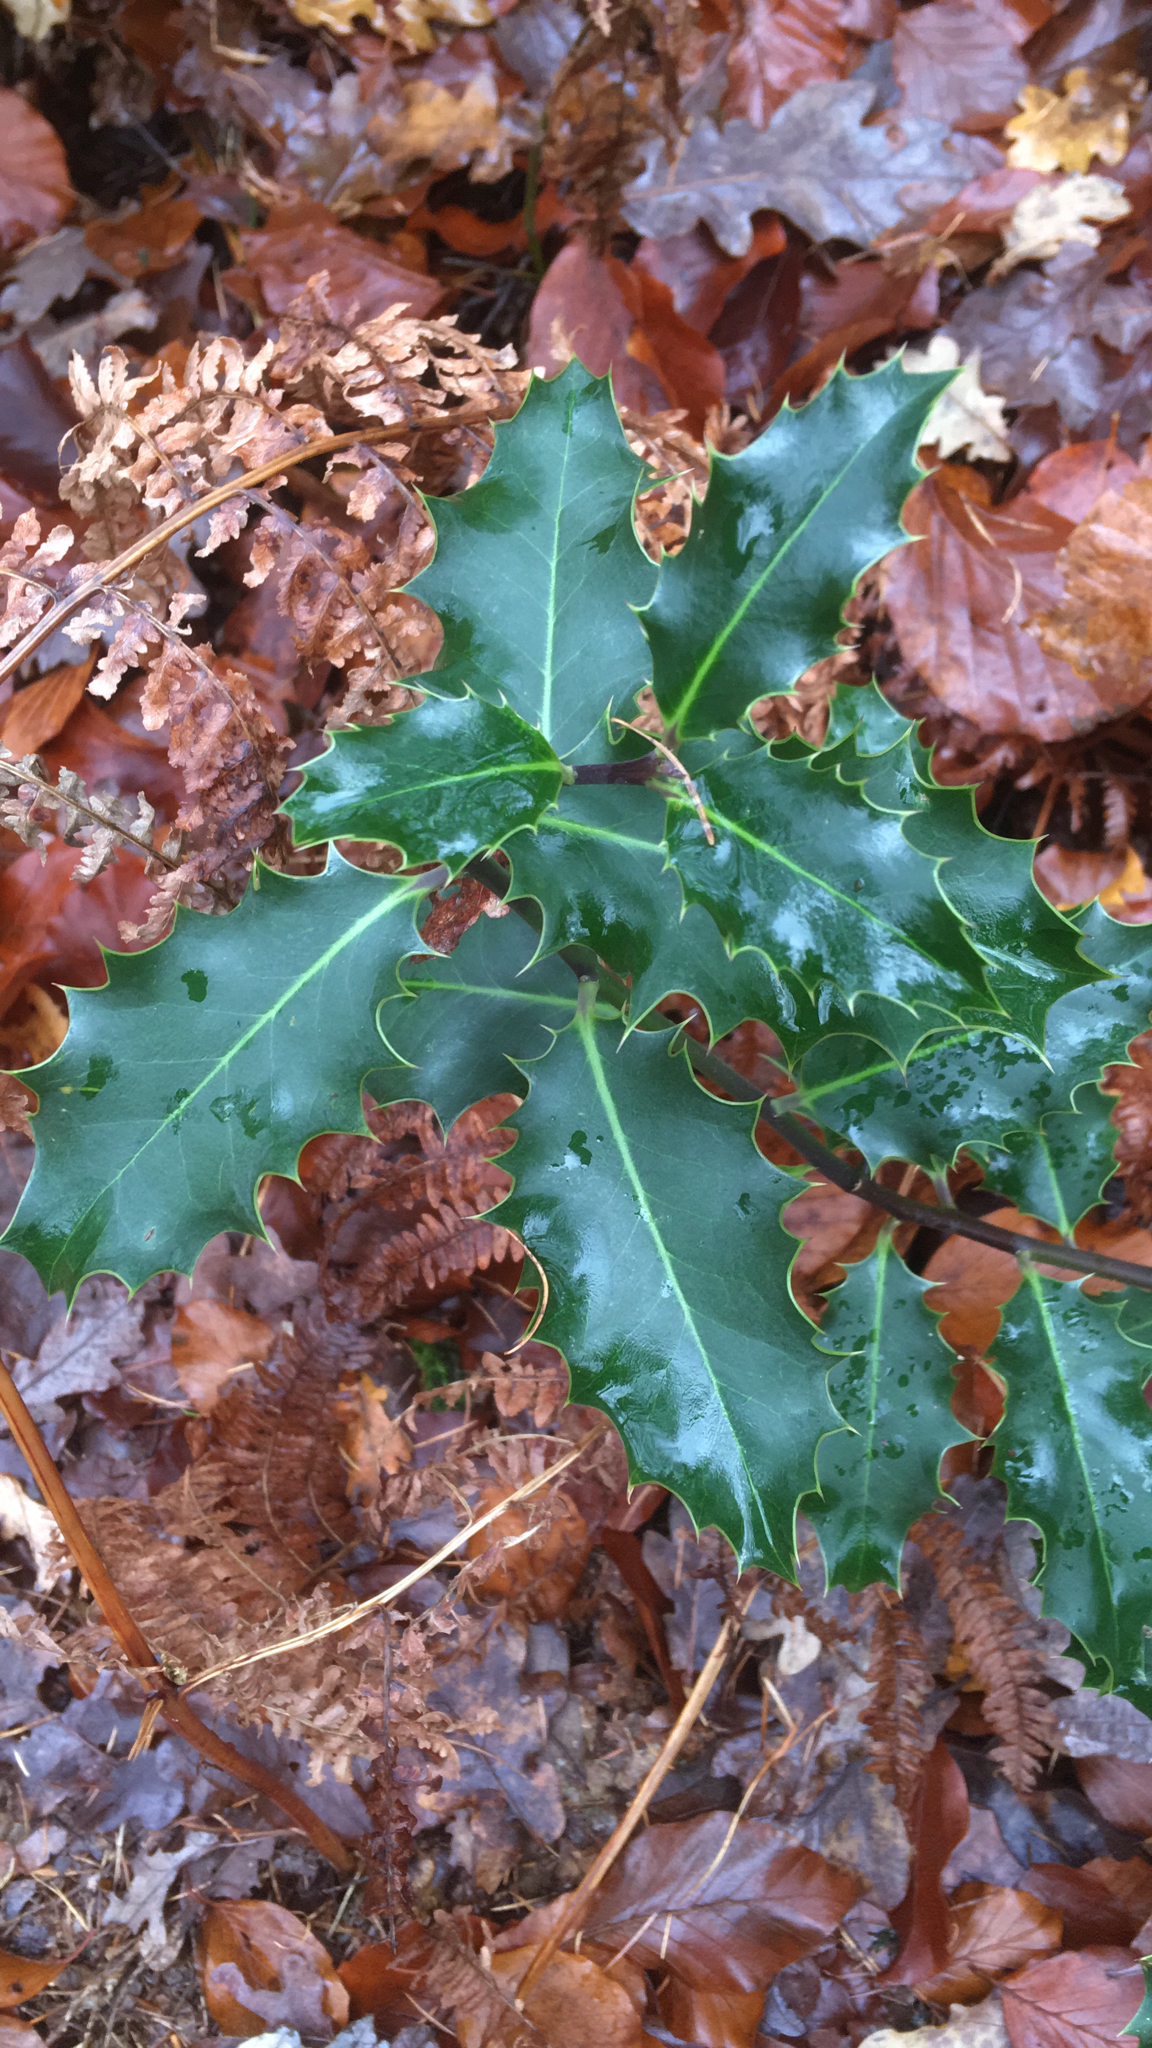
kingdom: Plantae
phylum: Tracheophyta
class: Magnoliopsida
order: Aquifoliales
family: Aquifoliaceae
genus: Ilex
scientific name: Ilex aquifolium
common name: English holly
